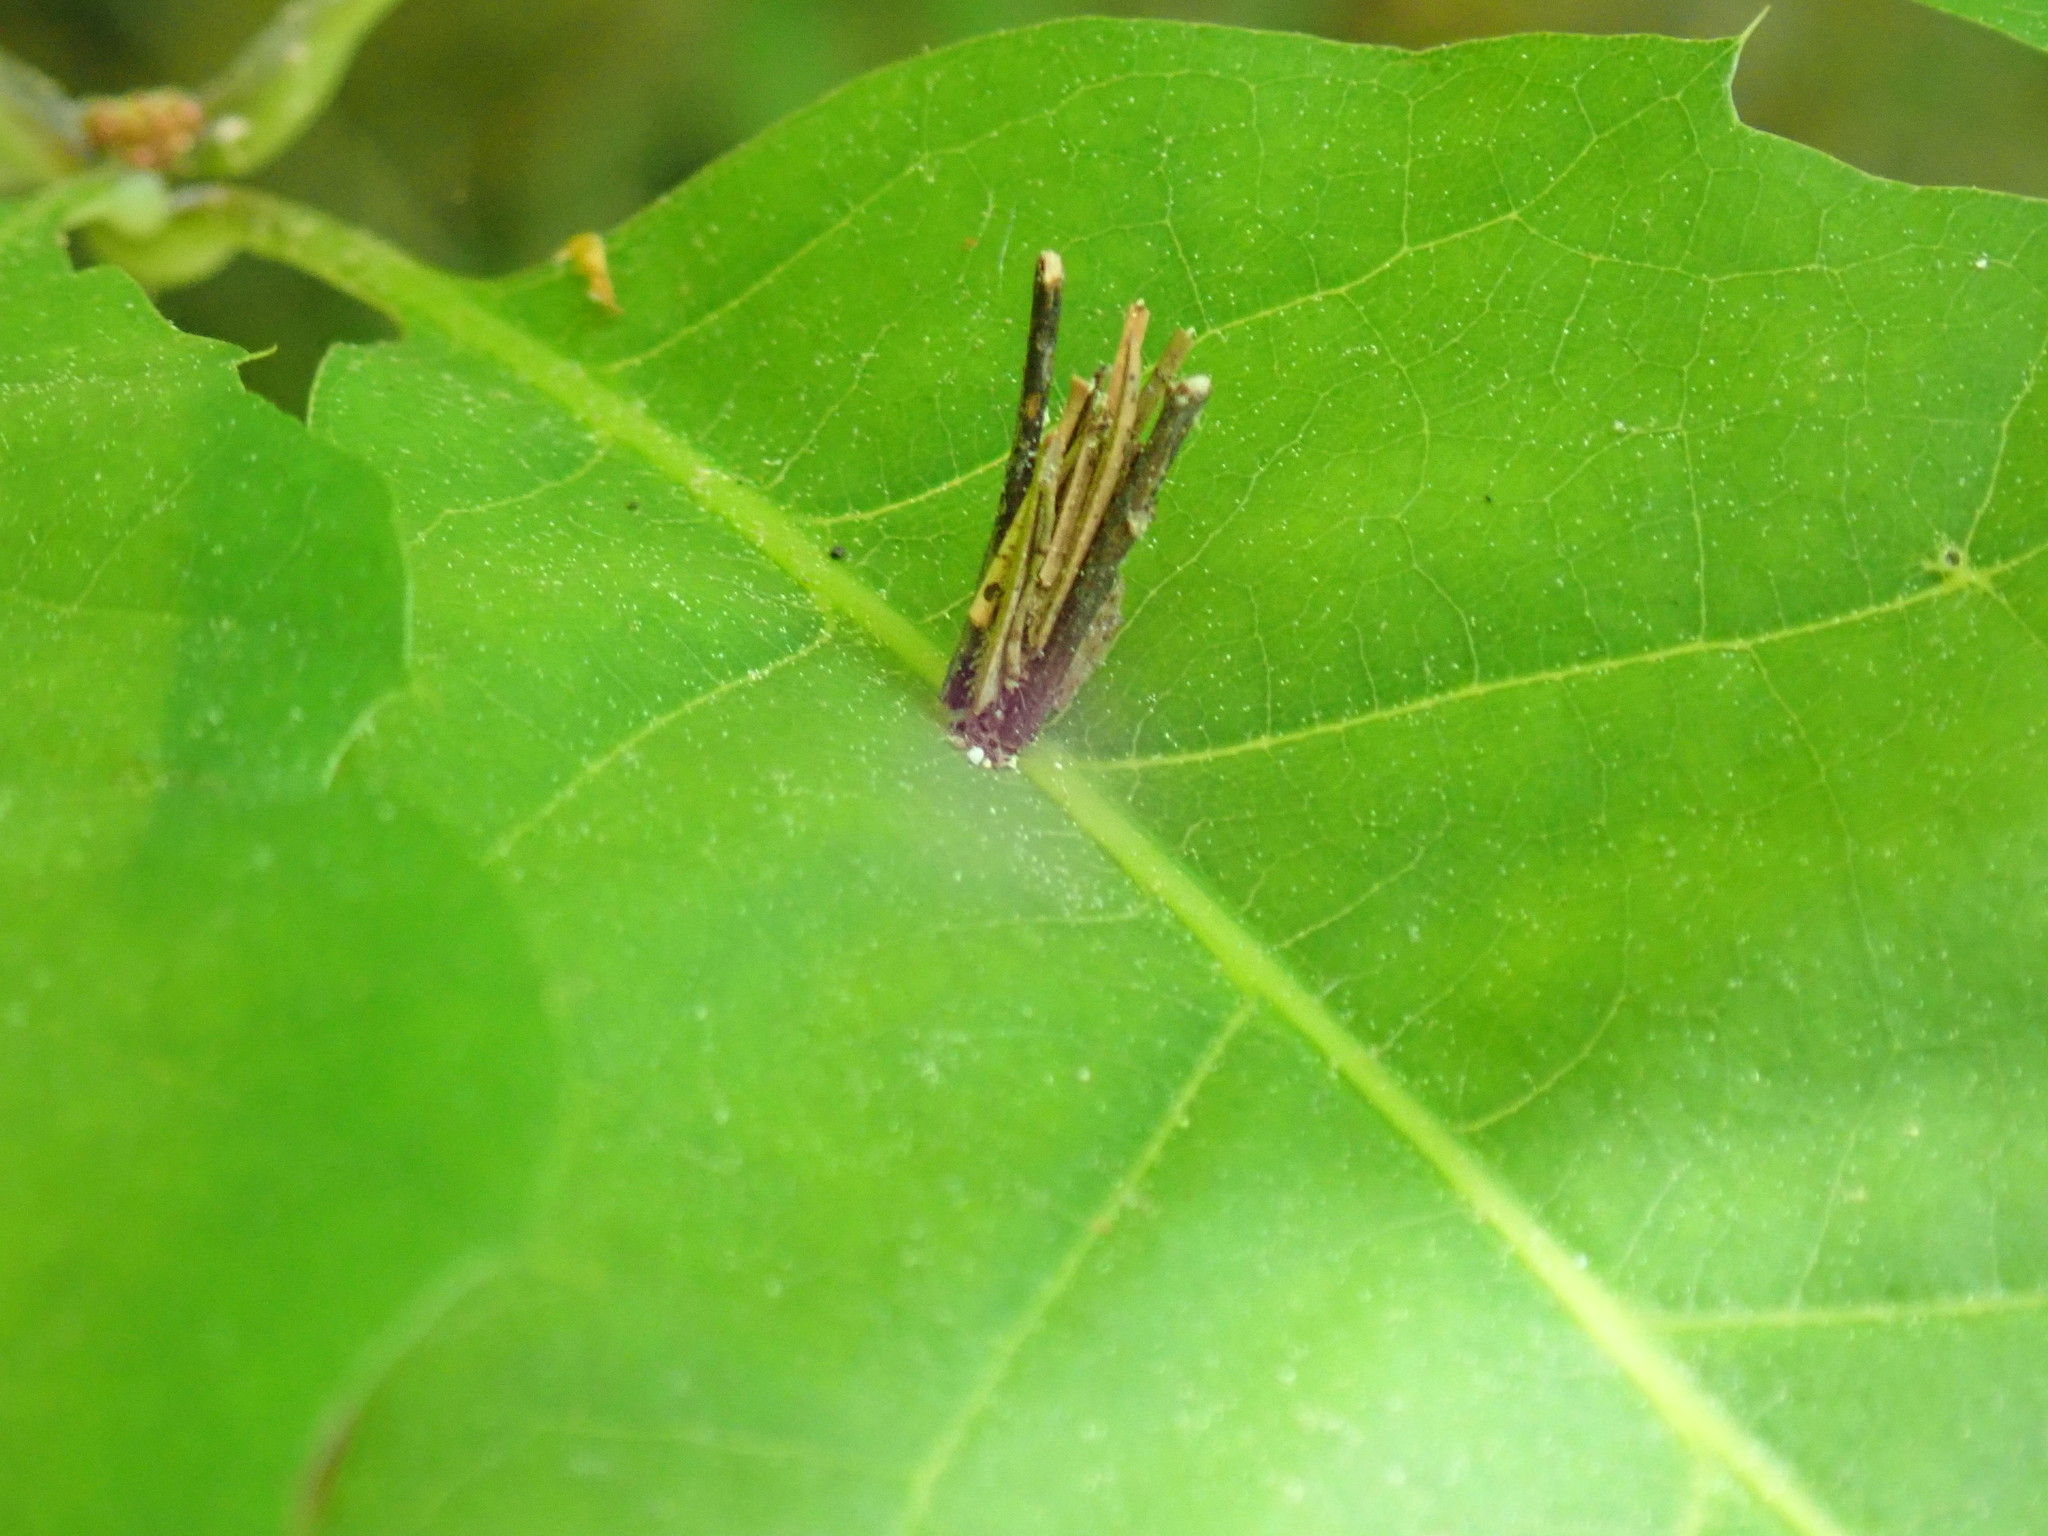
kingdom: Animalia
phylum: Arthropoda
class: Insecta
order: Lepidoptera
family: Psychidae
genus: Psyche
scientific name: Psyche casta
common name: Common sweep
